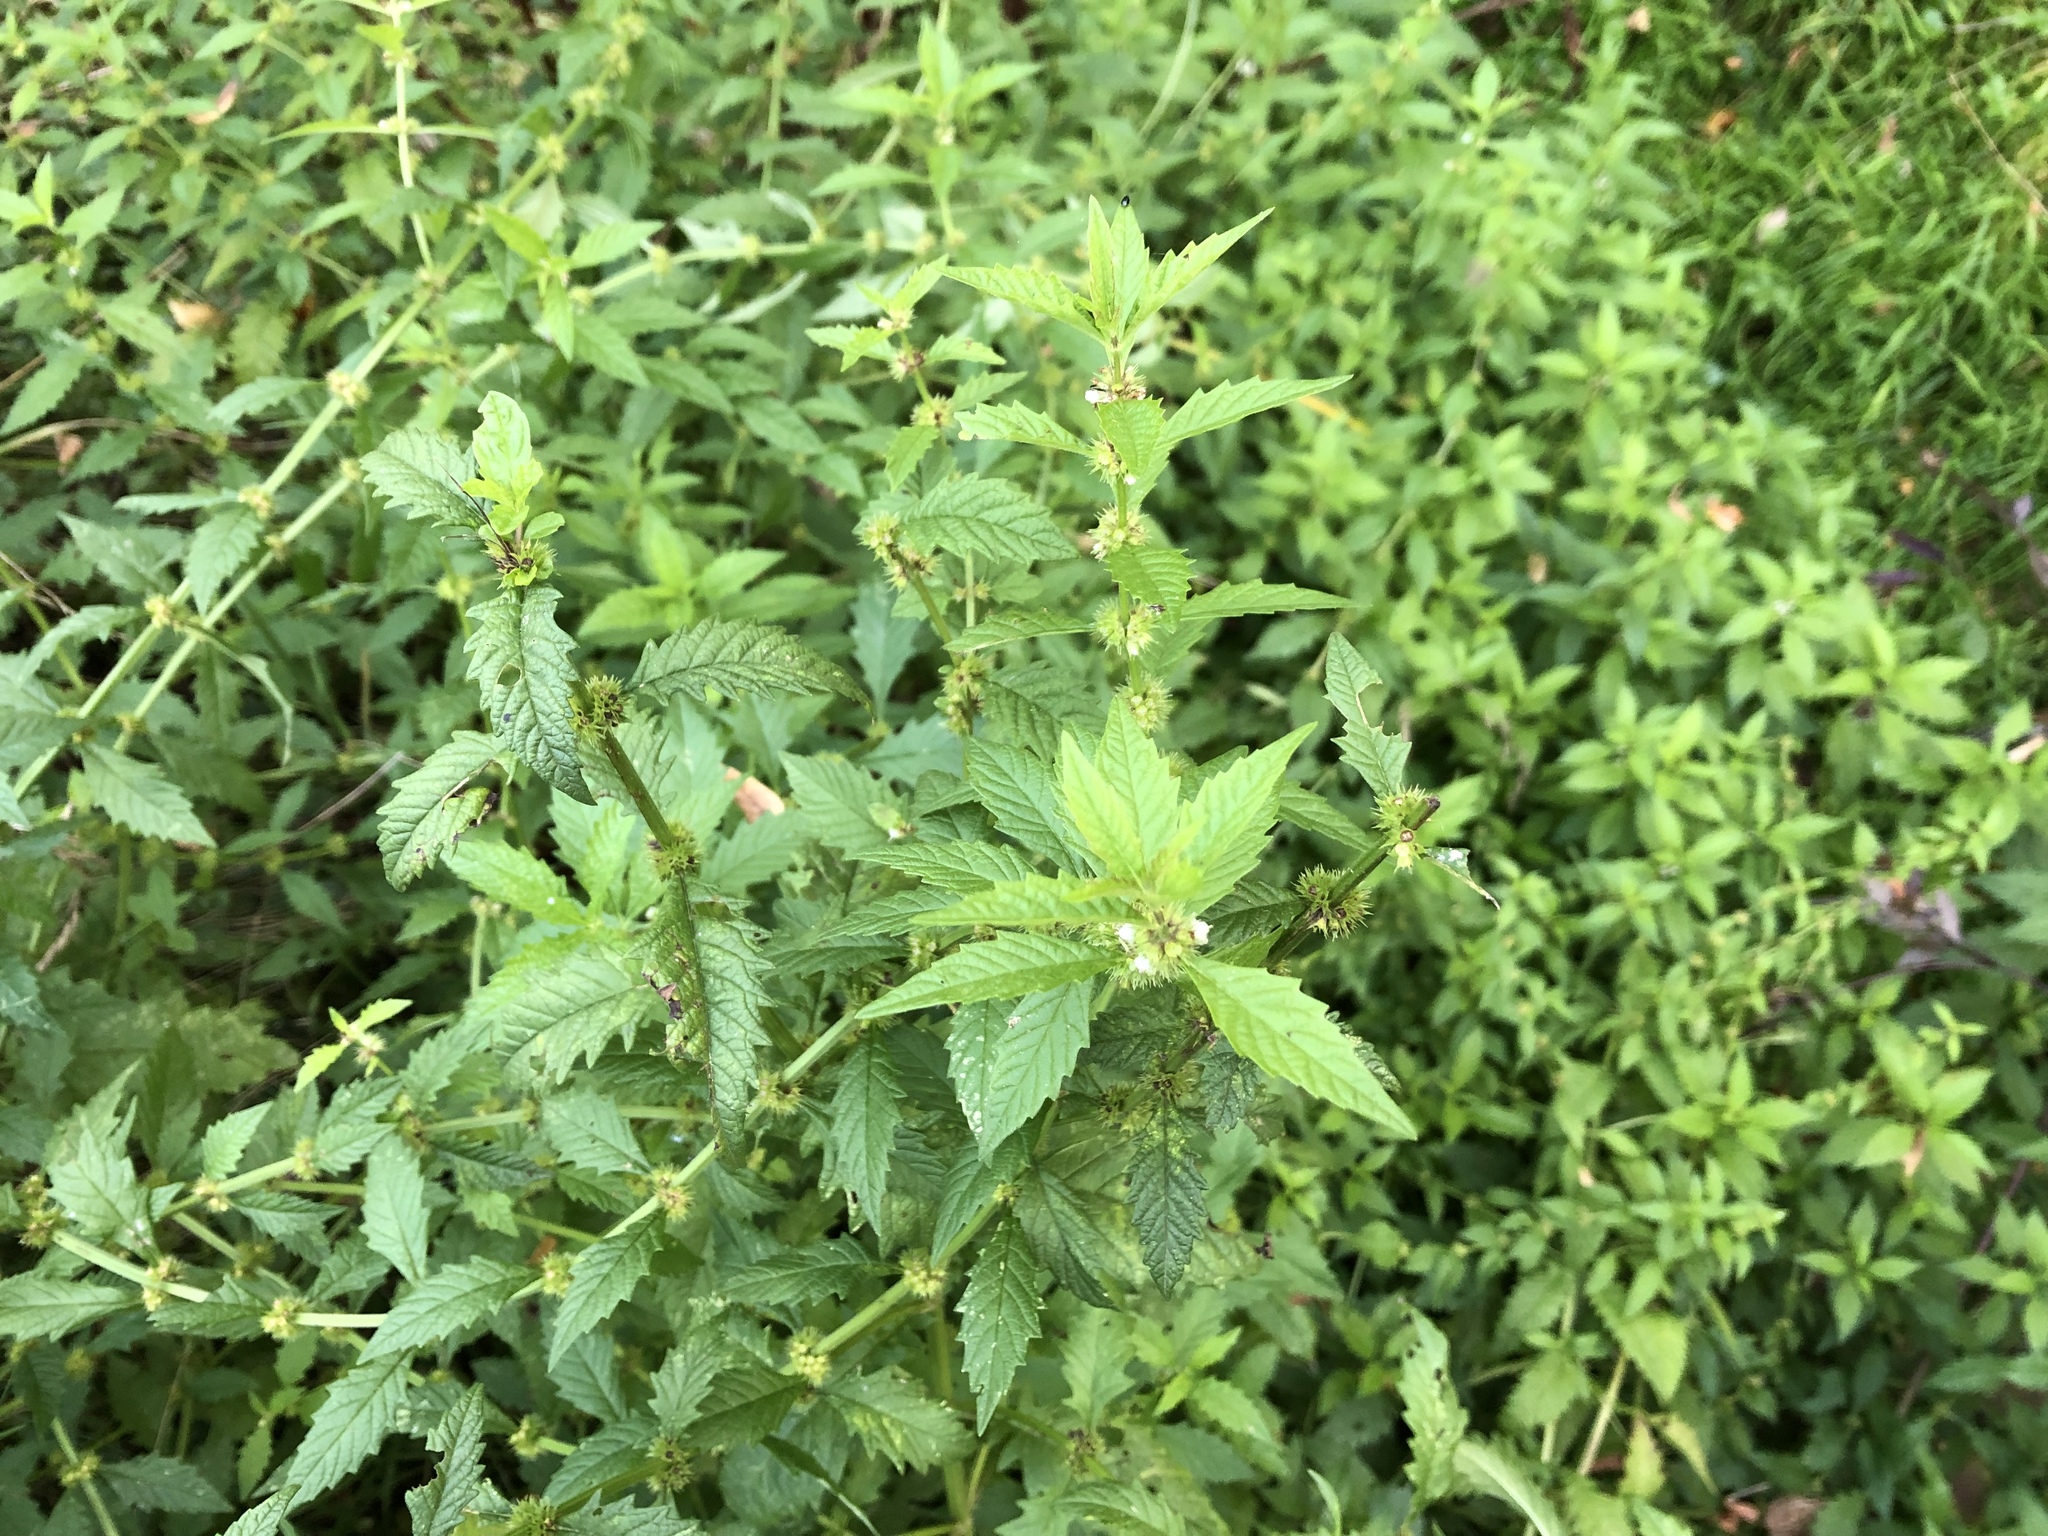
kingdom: Plantae
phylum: Tracheophyta
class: Magnoliopsida
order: Lamiales
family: Lamiaceae
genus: Lycopus
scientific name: Lycopus europaeus
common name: European bugleweed
